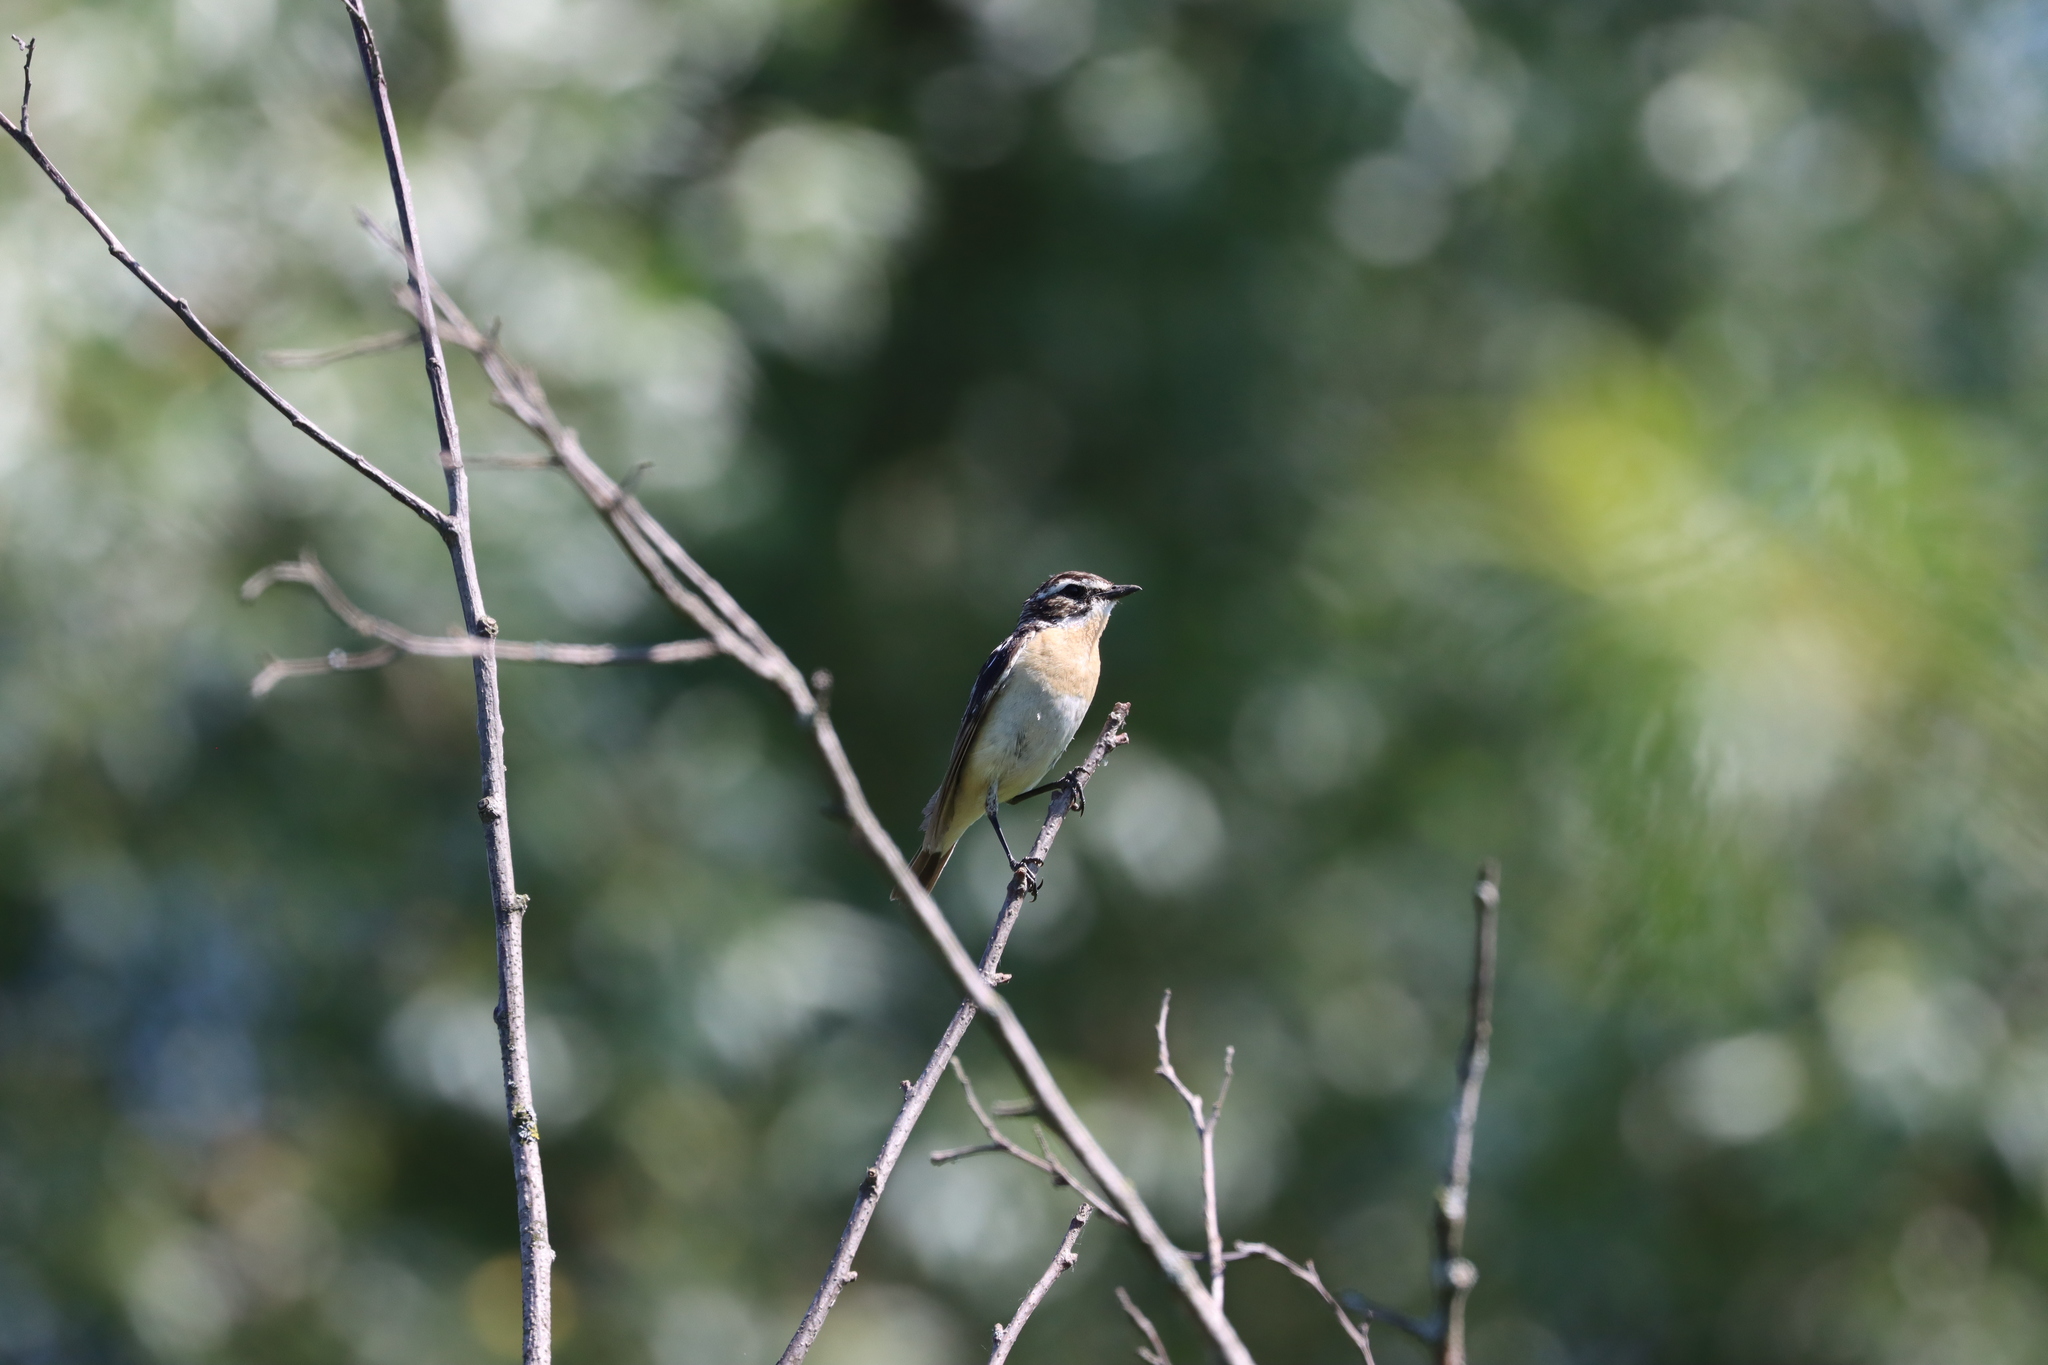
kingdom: Animalia
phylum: Chordata
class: Aves
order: Passeriformes
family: Muscicapidae
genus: Saxicola
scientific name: Saxicola rubetra
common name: Whinchat
